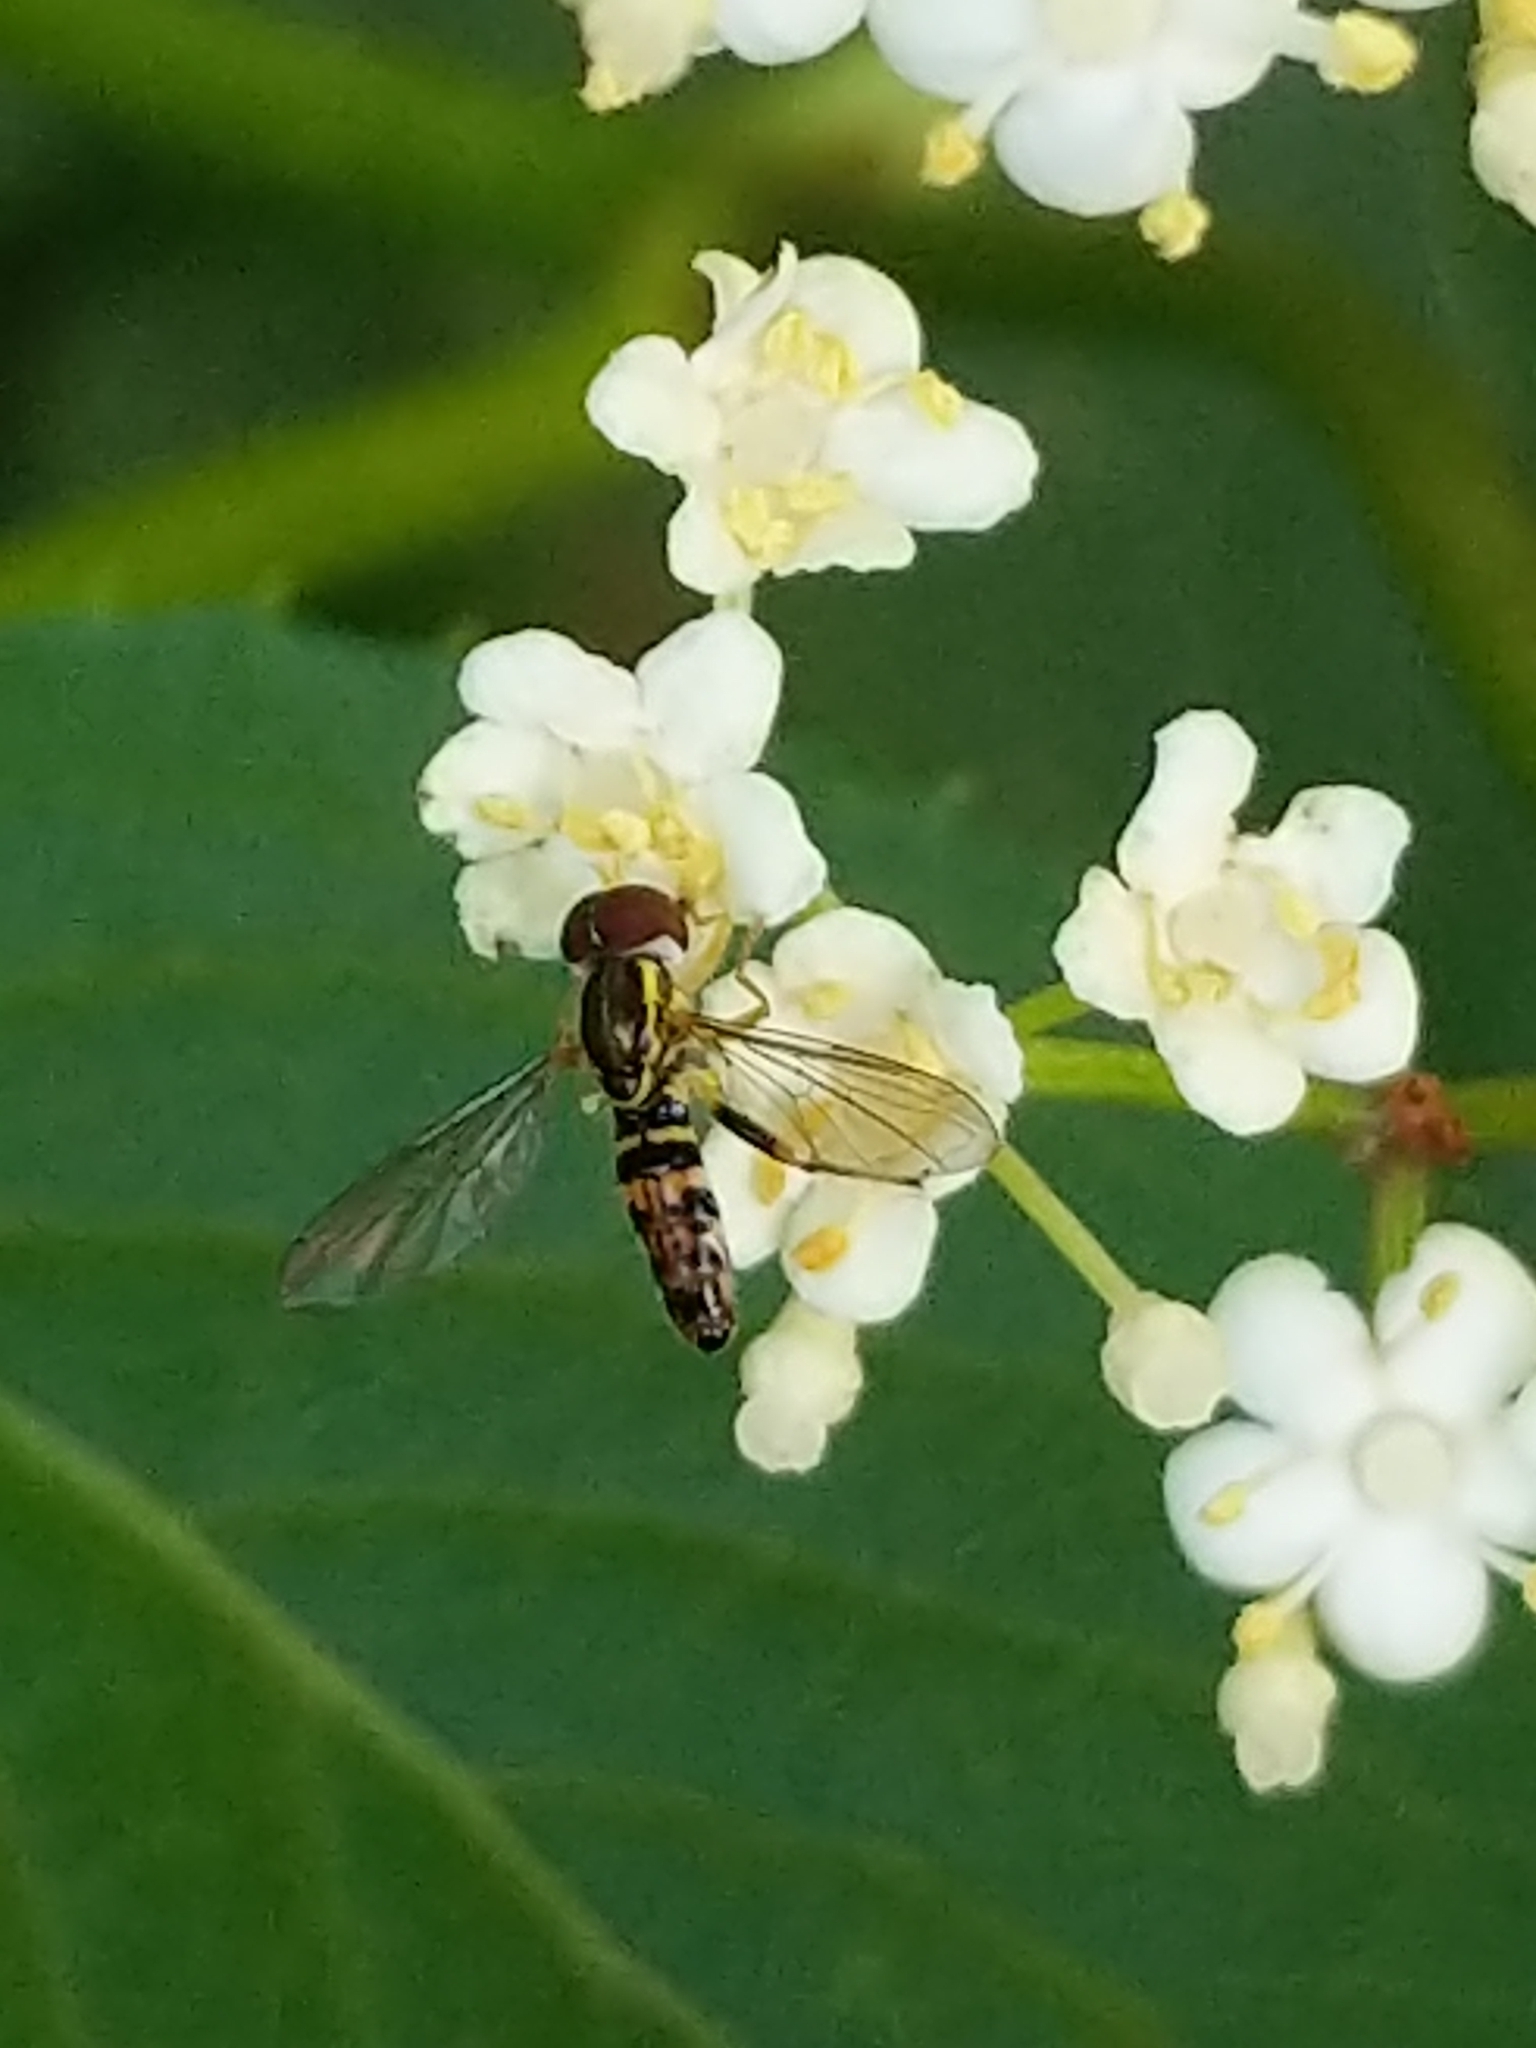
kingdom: Animalia
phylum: Arthropoda
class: Insecta
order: Diptera
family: Syrphidae
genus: Toxomerus
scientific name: Toxomerus geminatus
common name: Eastern calligrapher
